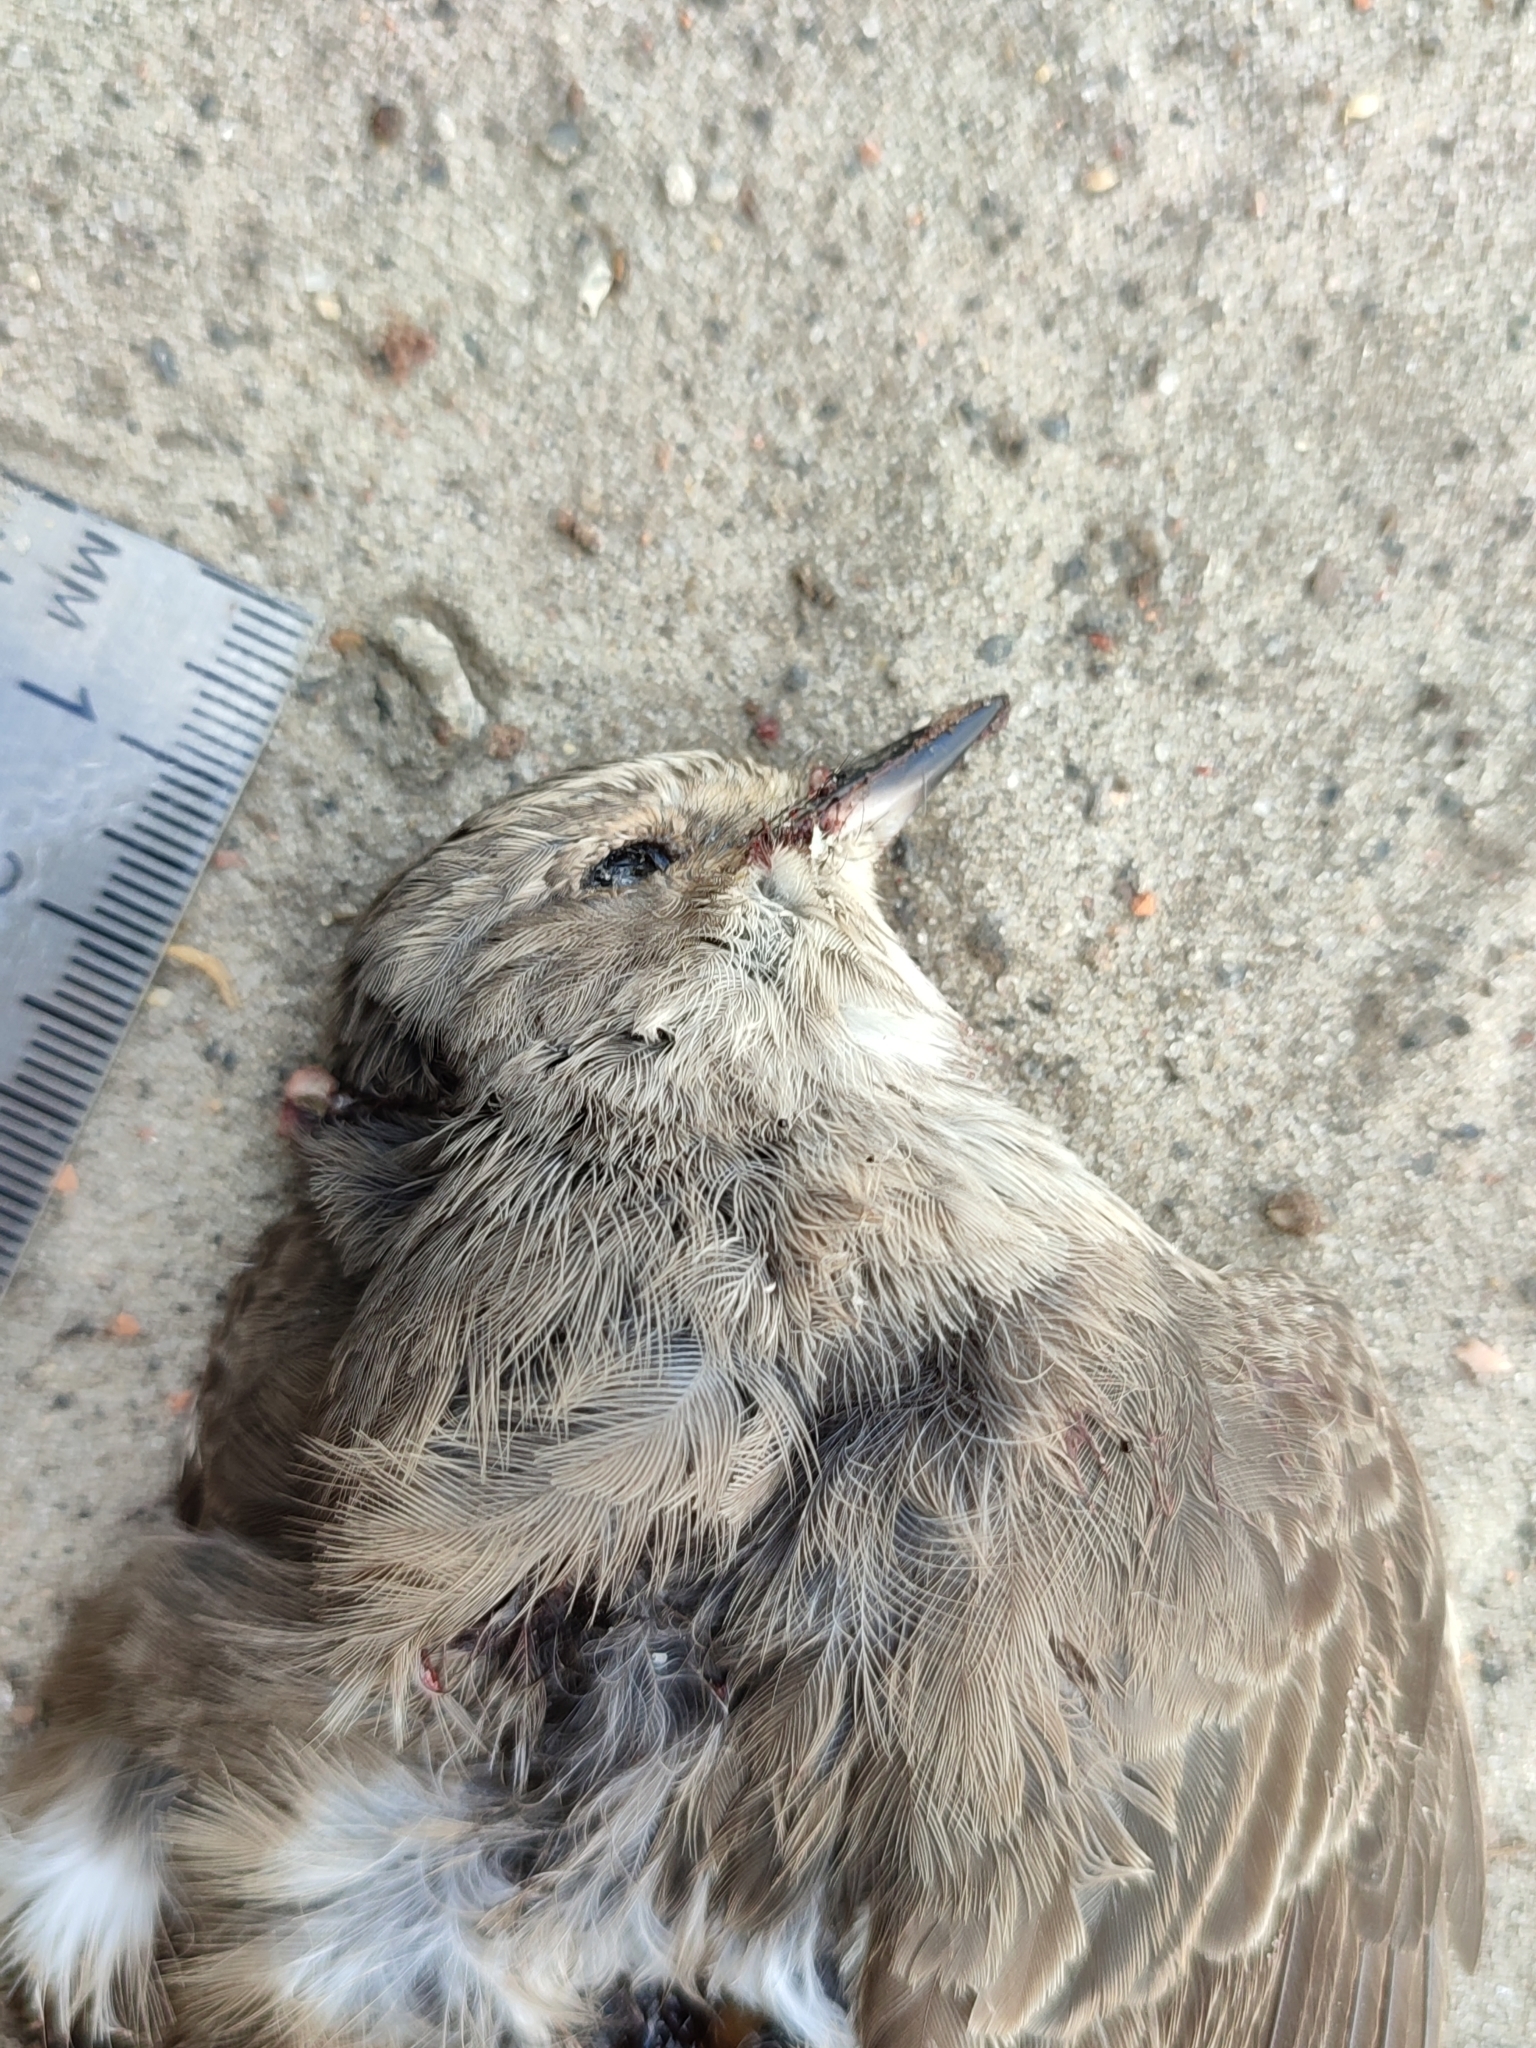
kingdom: Animalia
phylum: Chordata
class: Aves
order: Passeriformes
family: Muscicapidae
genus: Muscicapa
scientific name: Muscicapa striata
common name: Spotted flycatcher
